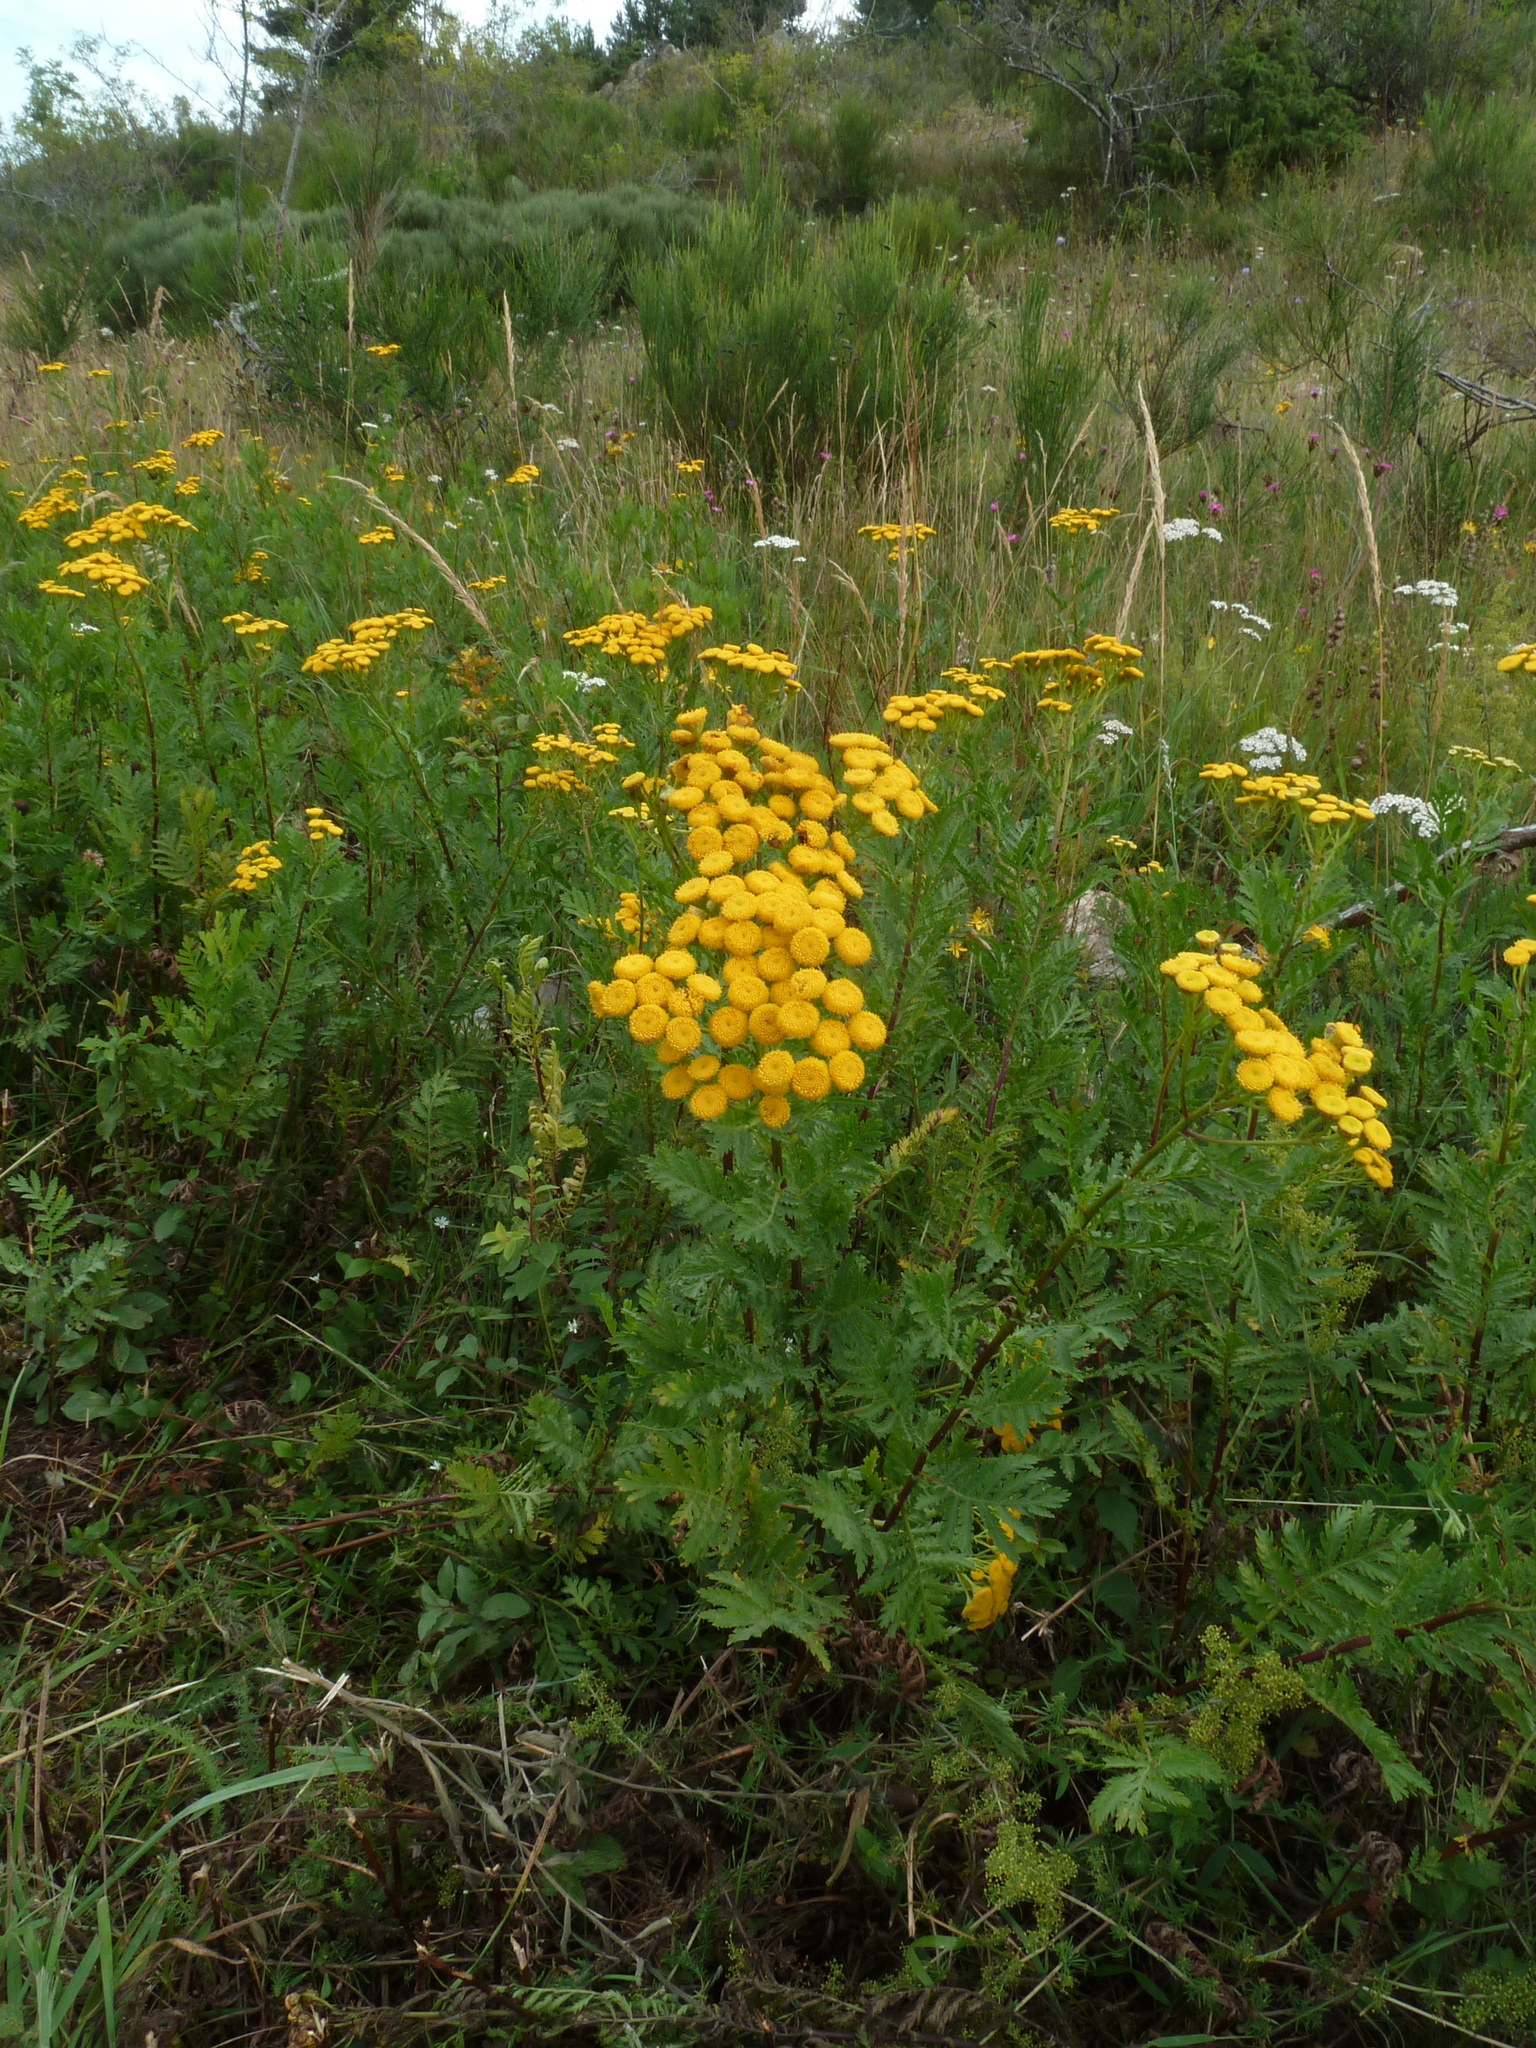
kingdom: Plantae
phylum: Tracheophyta
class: Magnoliopsida
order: Asterales
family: Asteraceae
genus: Tanacetum
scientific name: Tanacetum vulgare
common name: Common tansy
